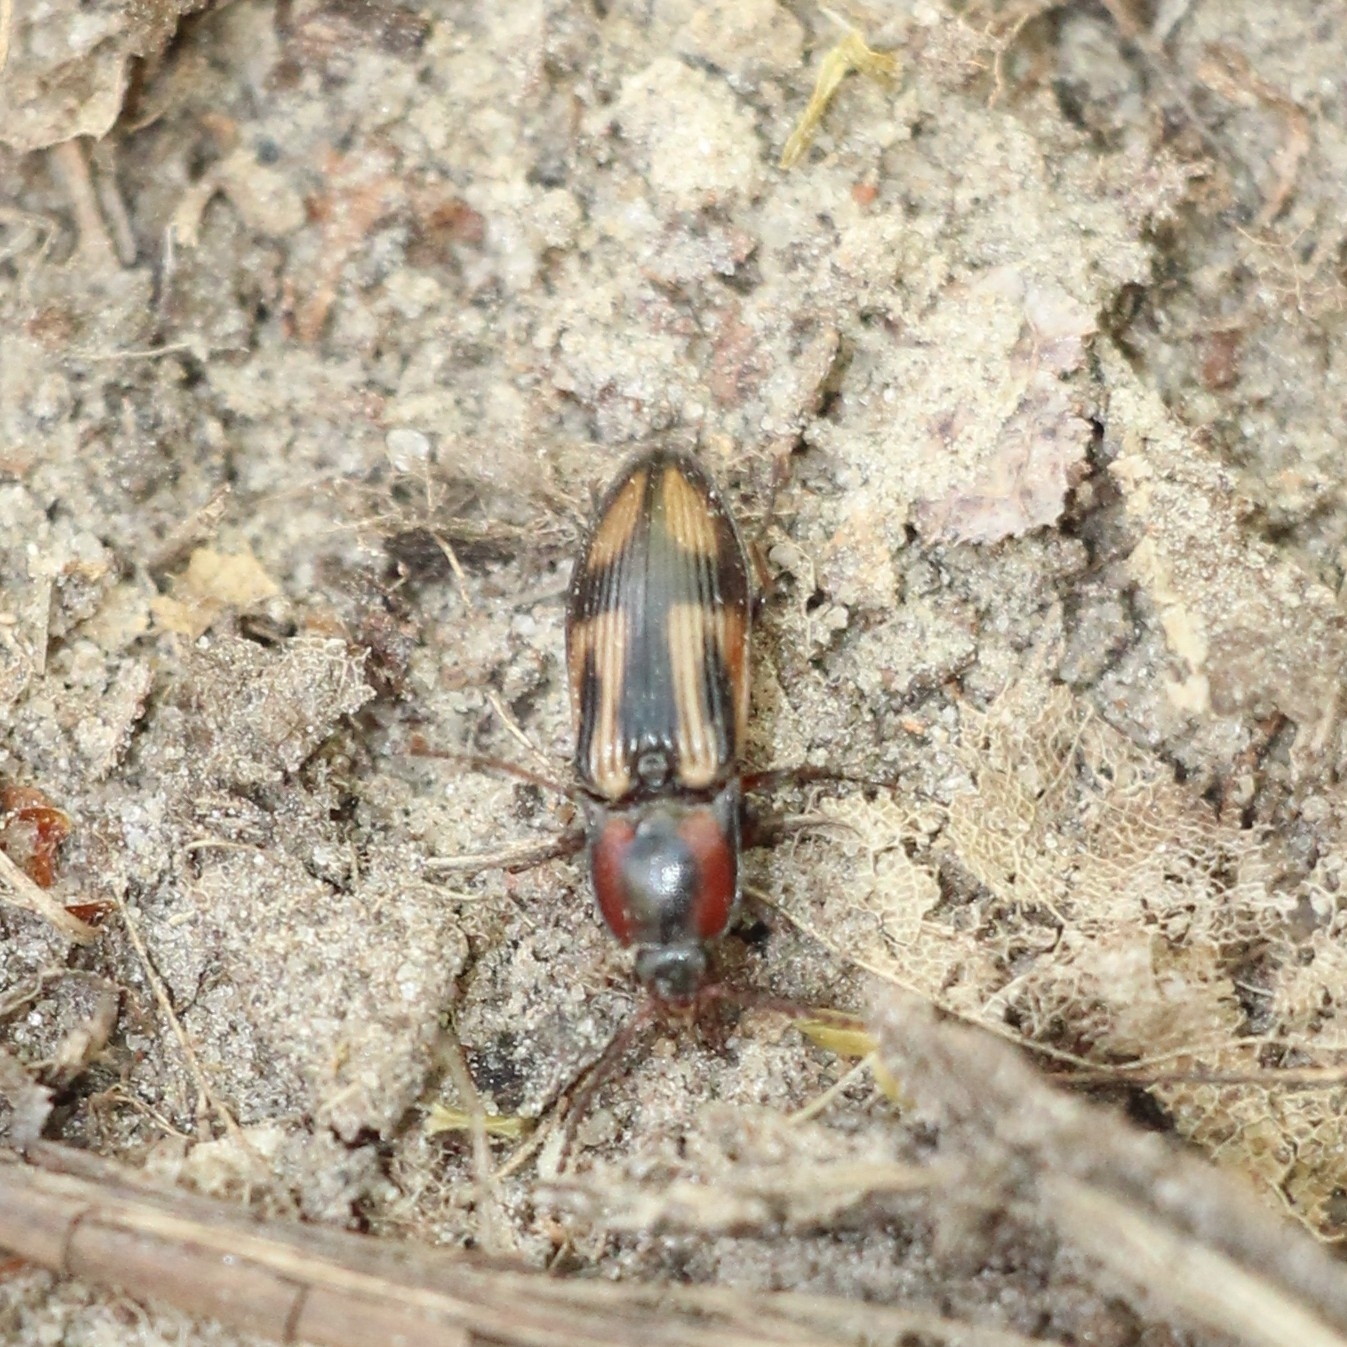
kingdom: Animalia
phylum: Arthropoda
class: Insecta
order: Coleoptera
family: Elateridae
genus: Selatosomus
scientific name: Selatosomus cruciatus
